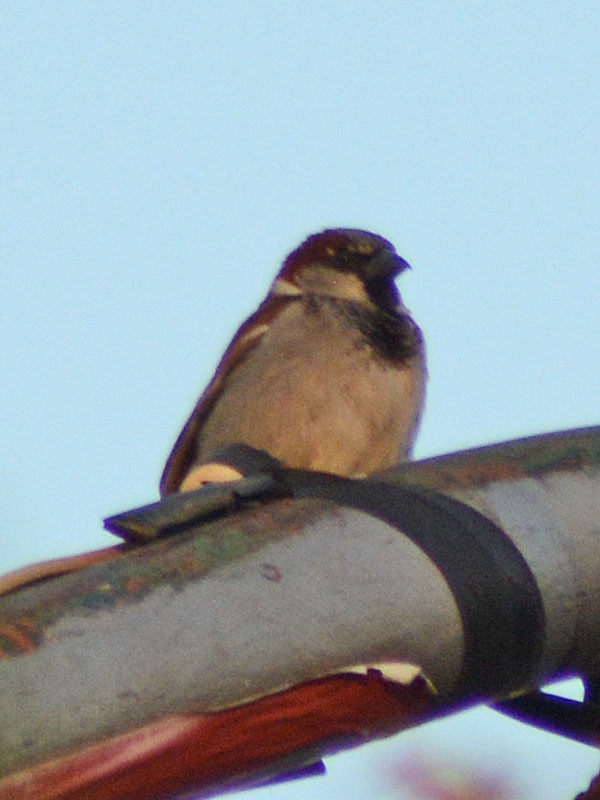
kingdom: Animalia
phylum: Chordata
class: Aves
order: Passeriformes
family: Passeridae
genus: Passer
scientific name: Passer domesticus
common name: House sparrow
